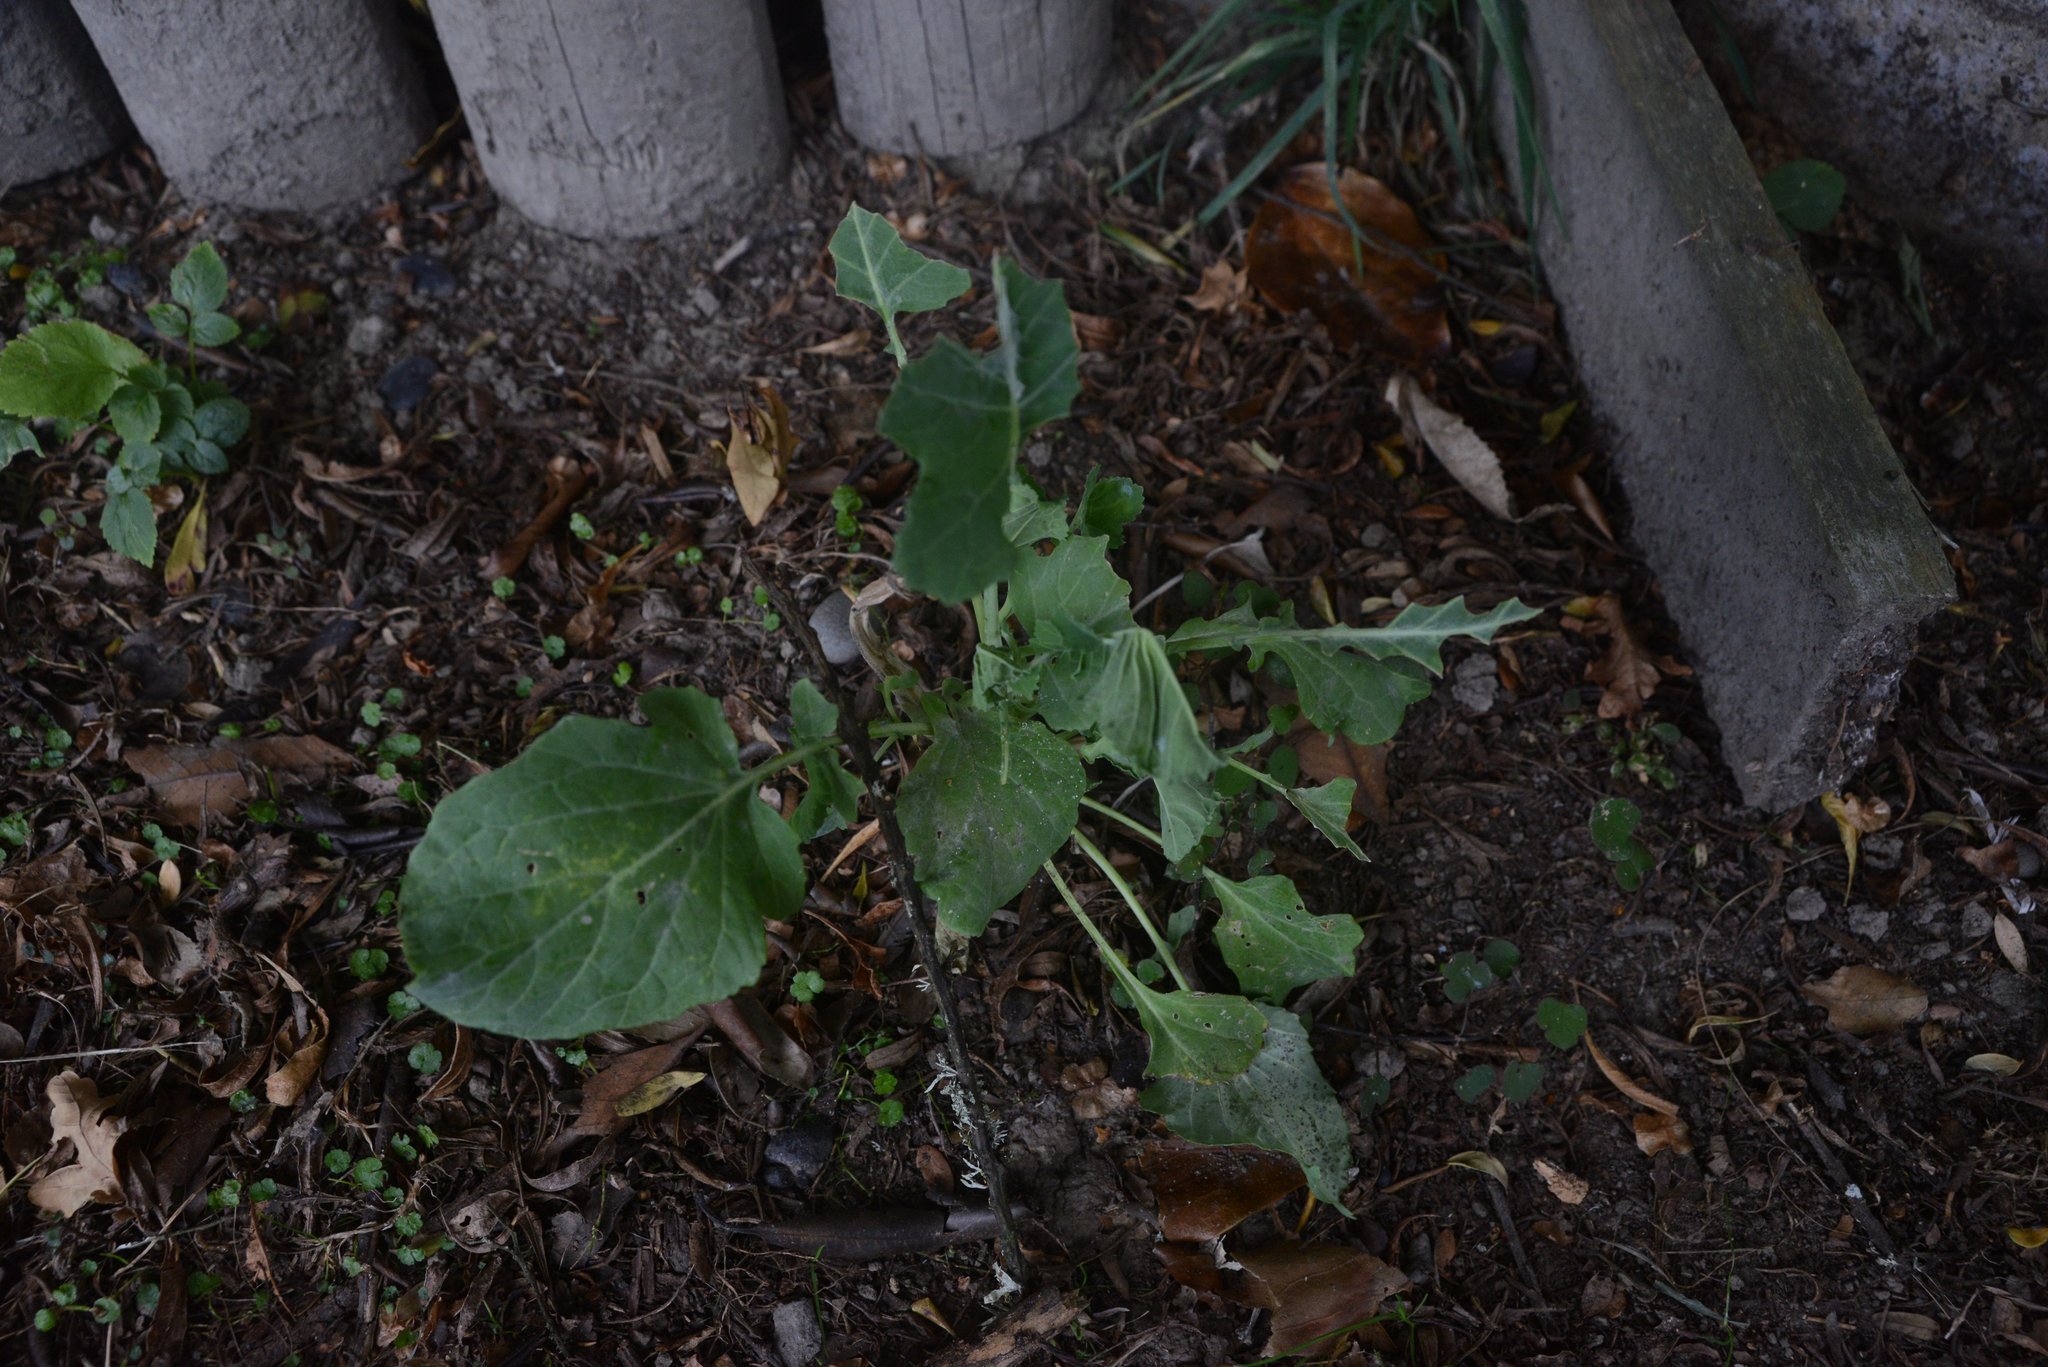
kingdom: Plantae
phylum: Tracheophyta
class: Magnoliopsida
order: Brassicales
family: Brassicaceae
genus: Brassica
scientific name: Brassica oleracea
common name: Cabbage
